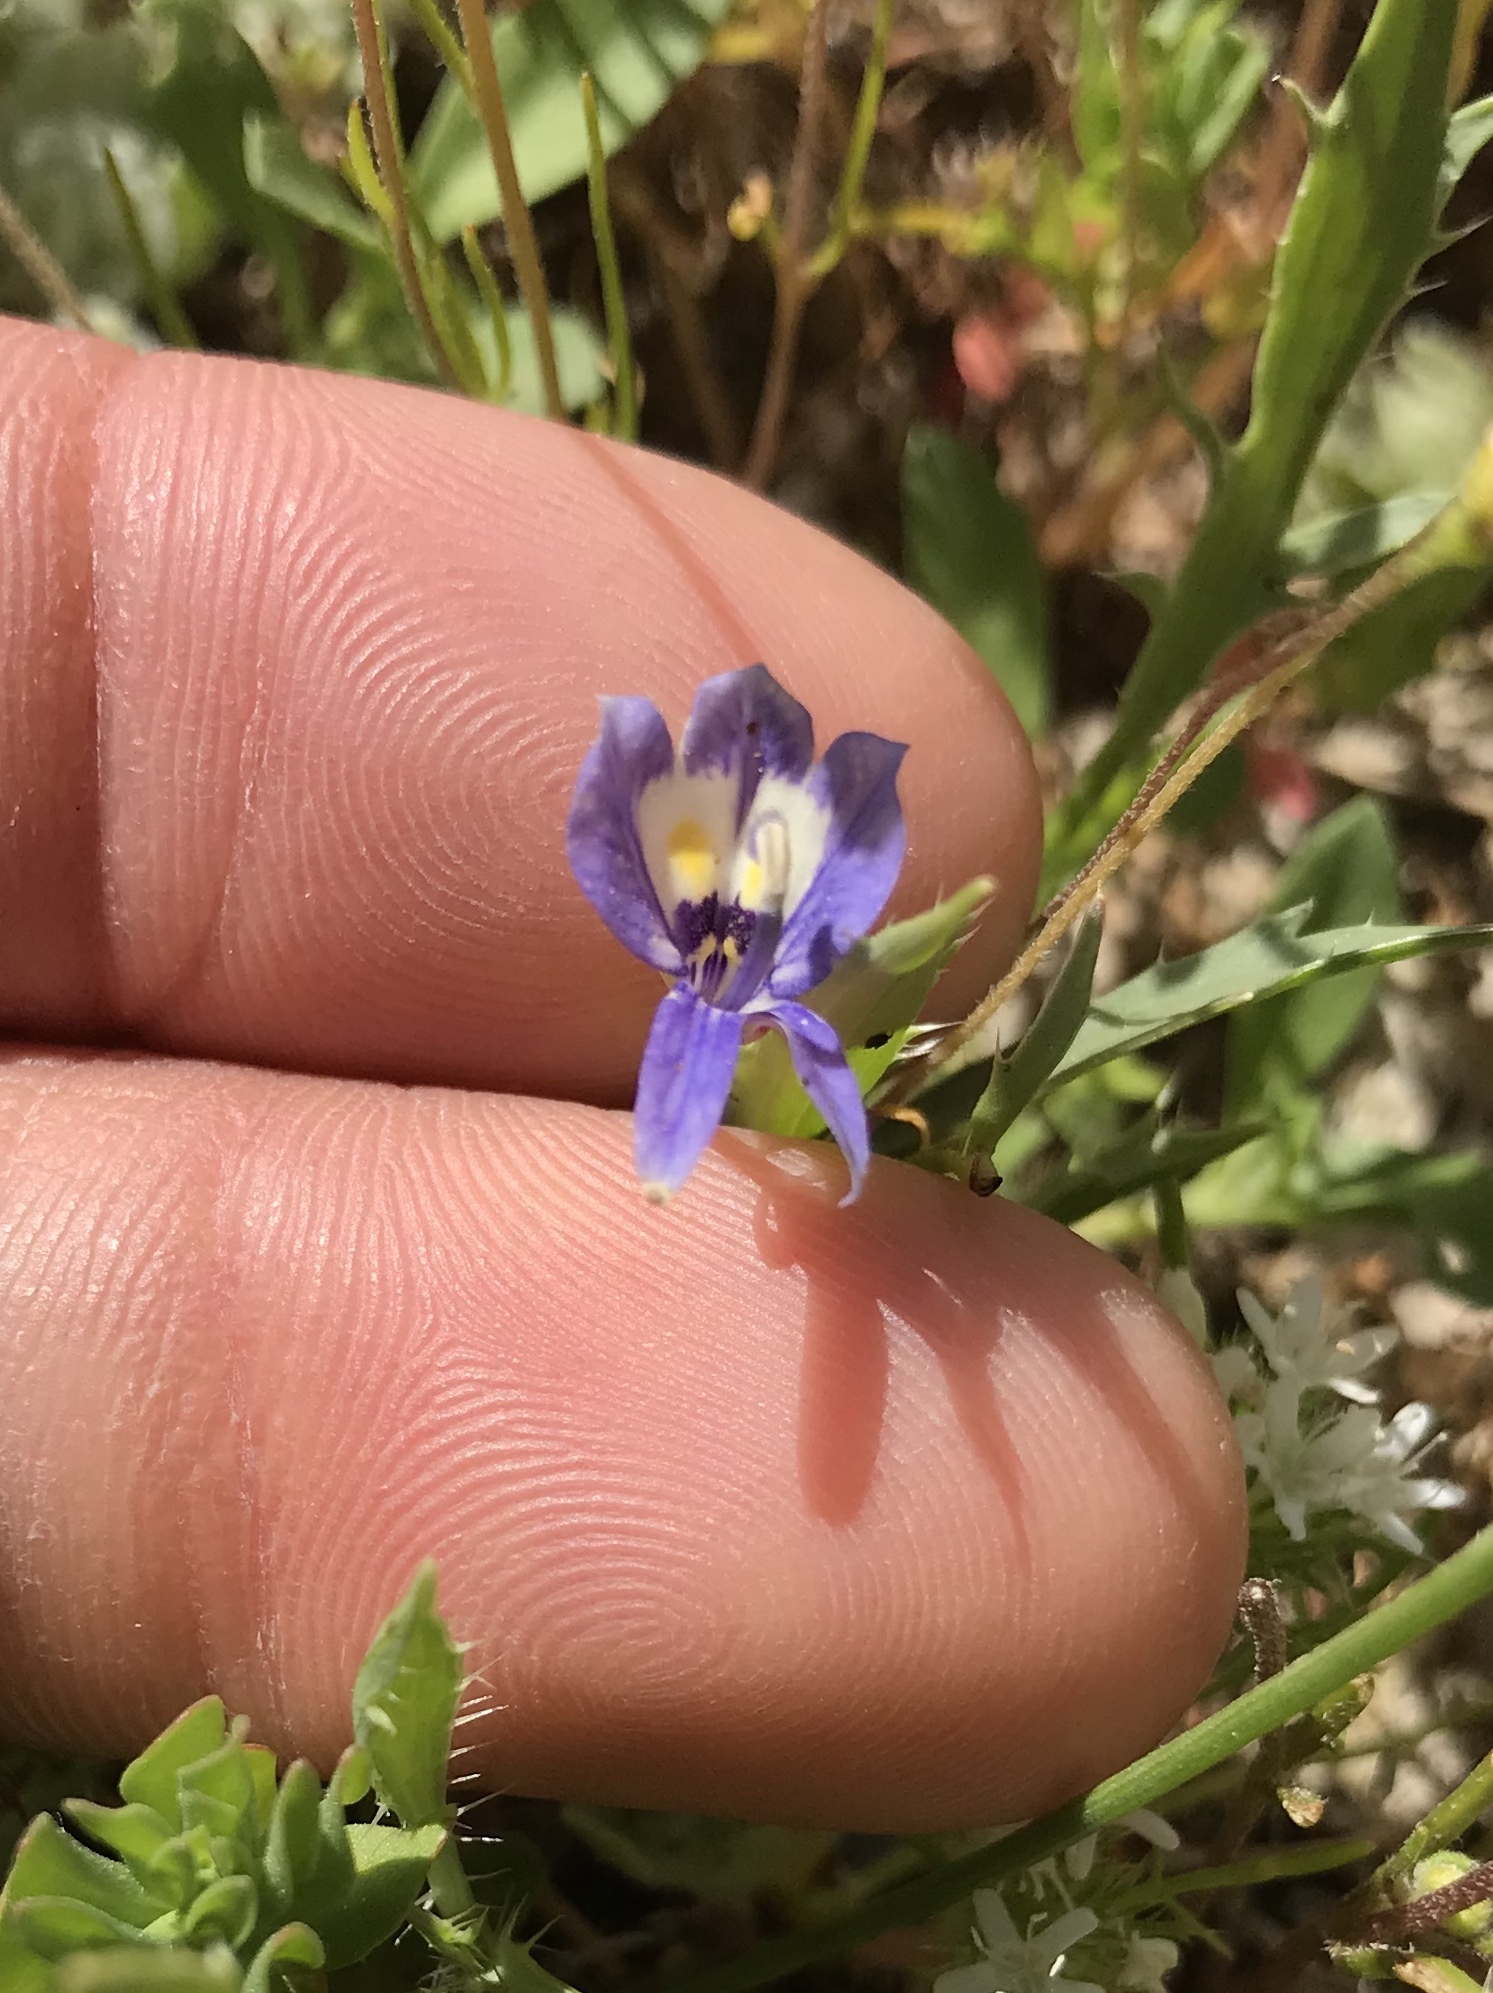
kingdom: Plantae
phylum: Tracheophyta
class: Magnoliopsida
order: Asterales
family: Campanulaceae
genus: Downingia
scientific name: Downingia insignis
